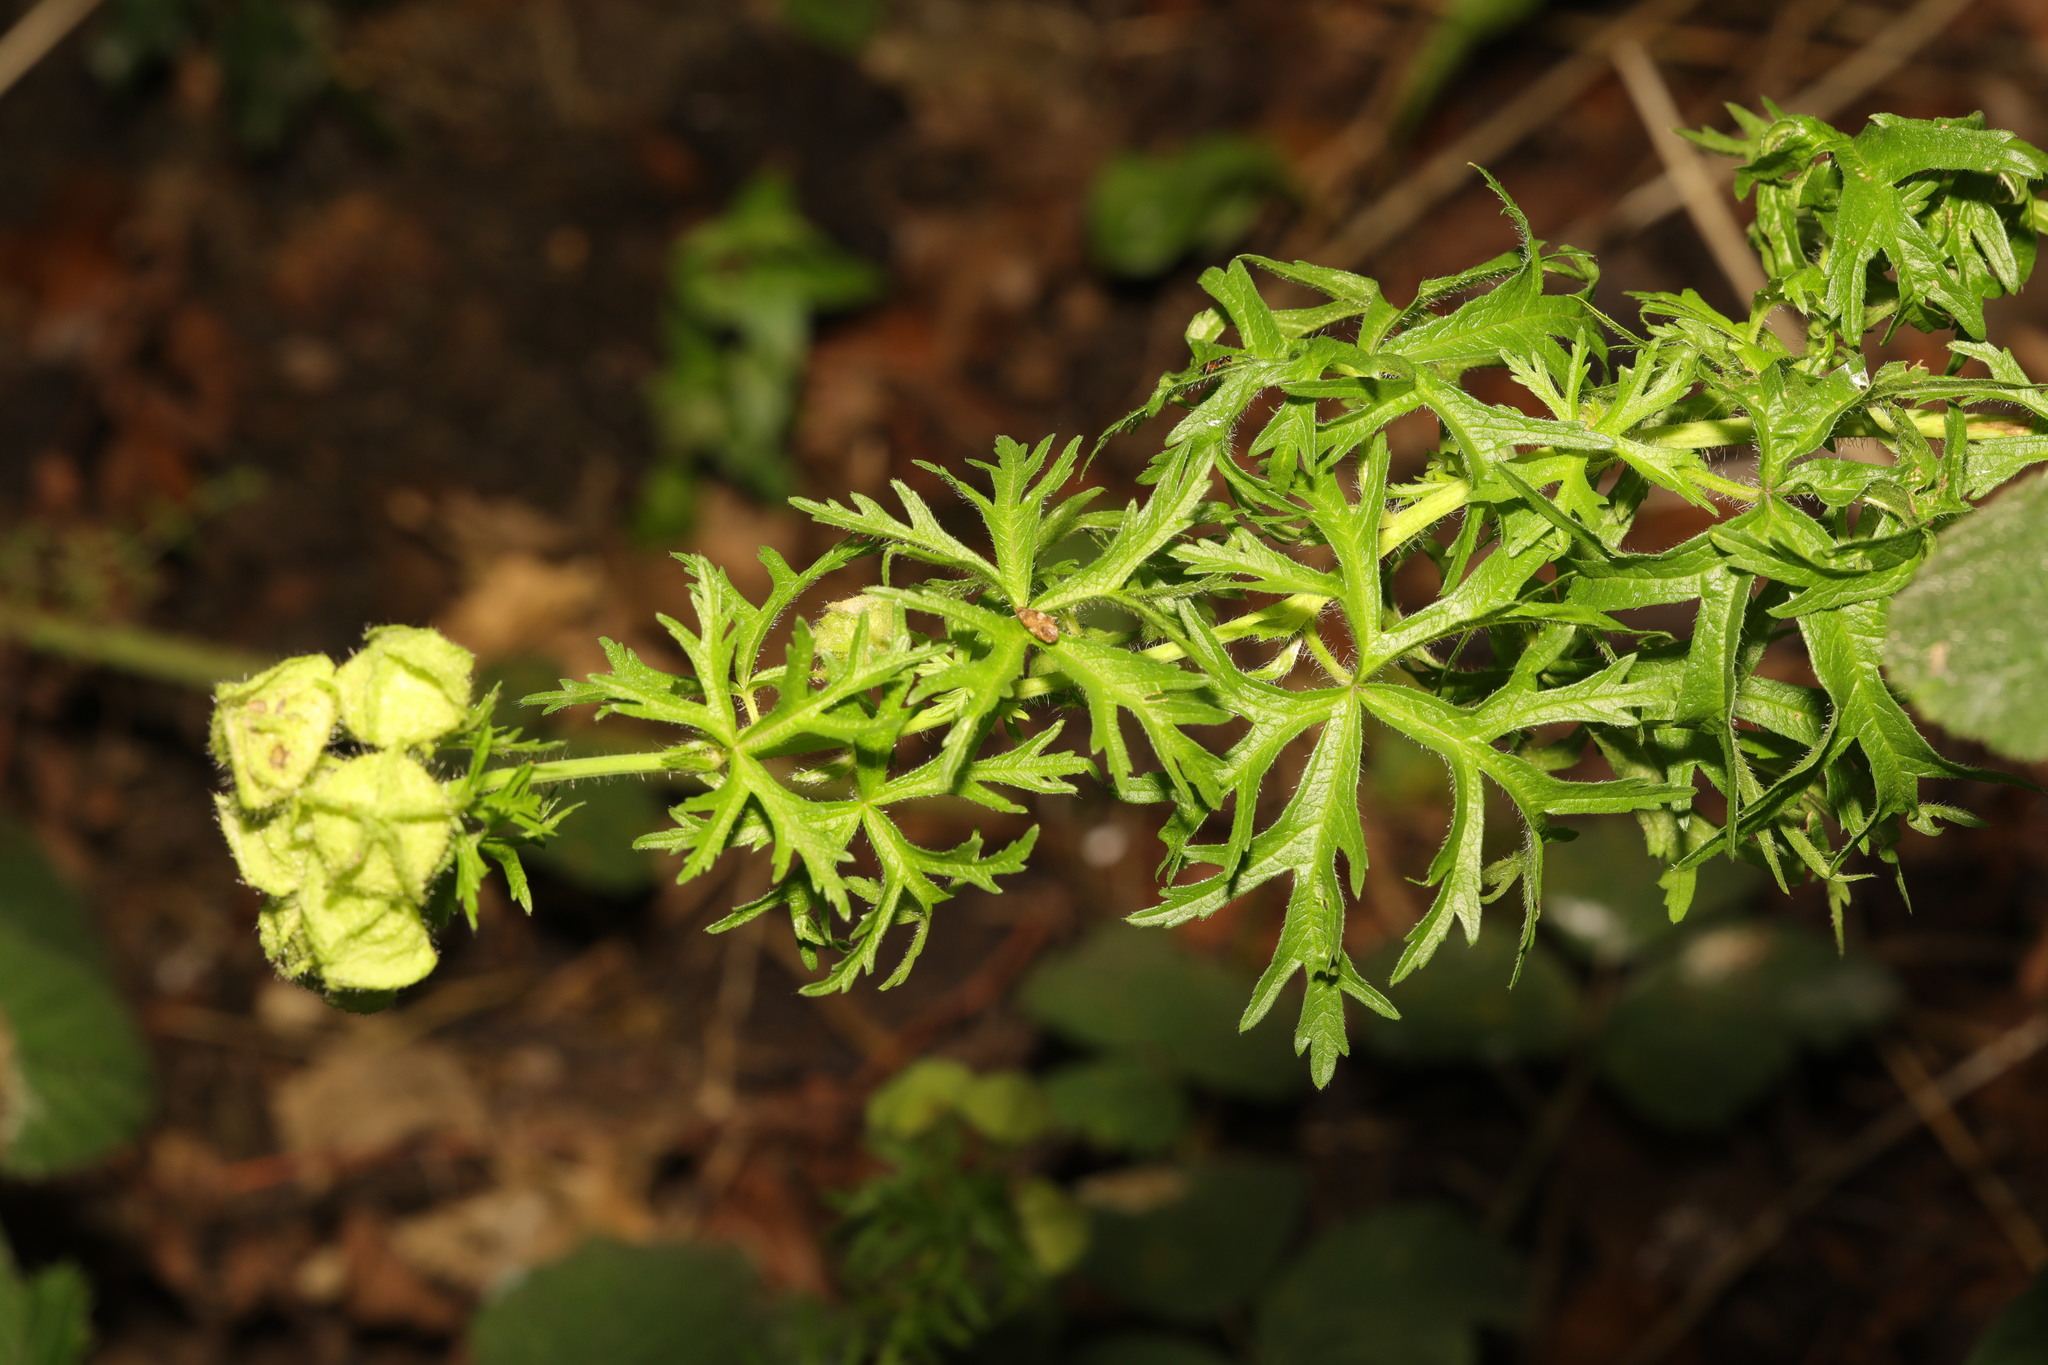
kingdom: Plantae
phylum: Tracheophyta
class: Magnoliopsida
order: Malvales
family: Malvaceae
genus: Malva
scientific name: Malva moschata
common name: Musk mallow
